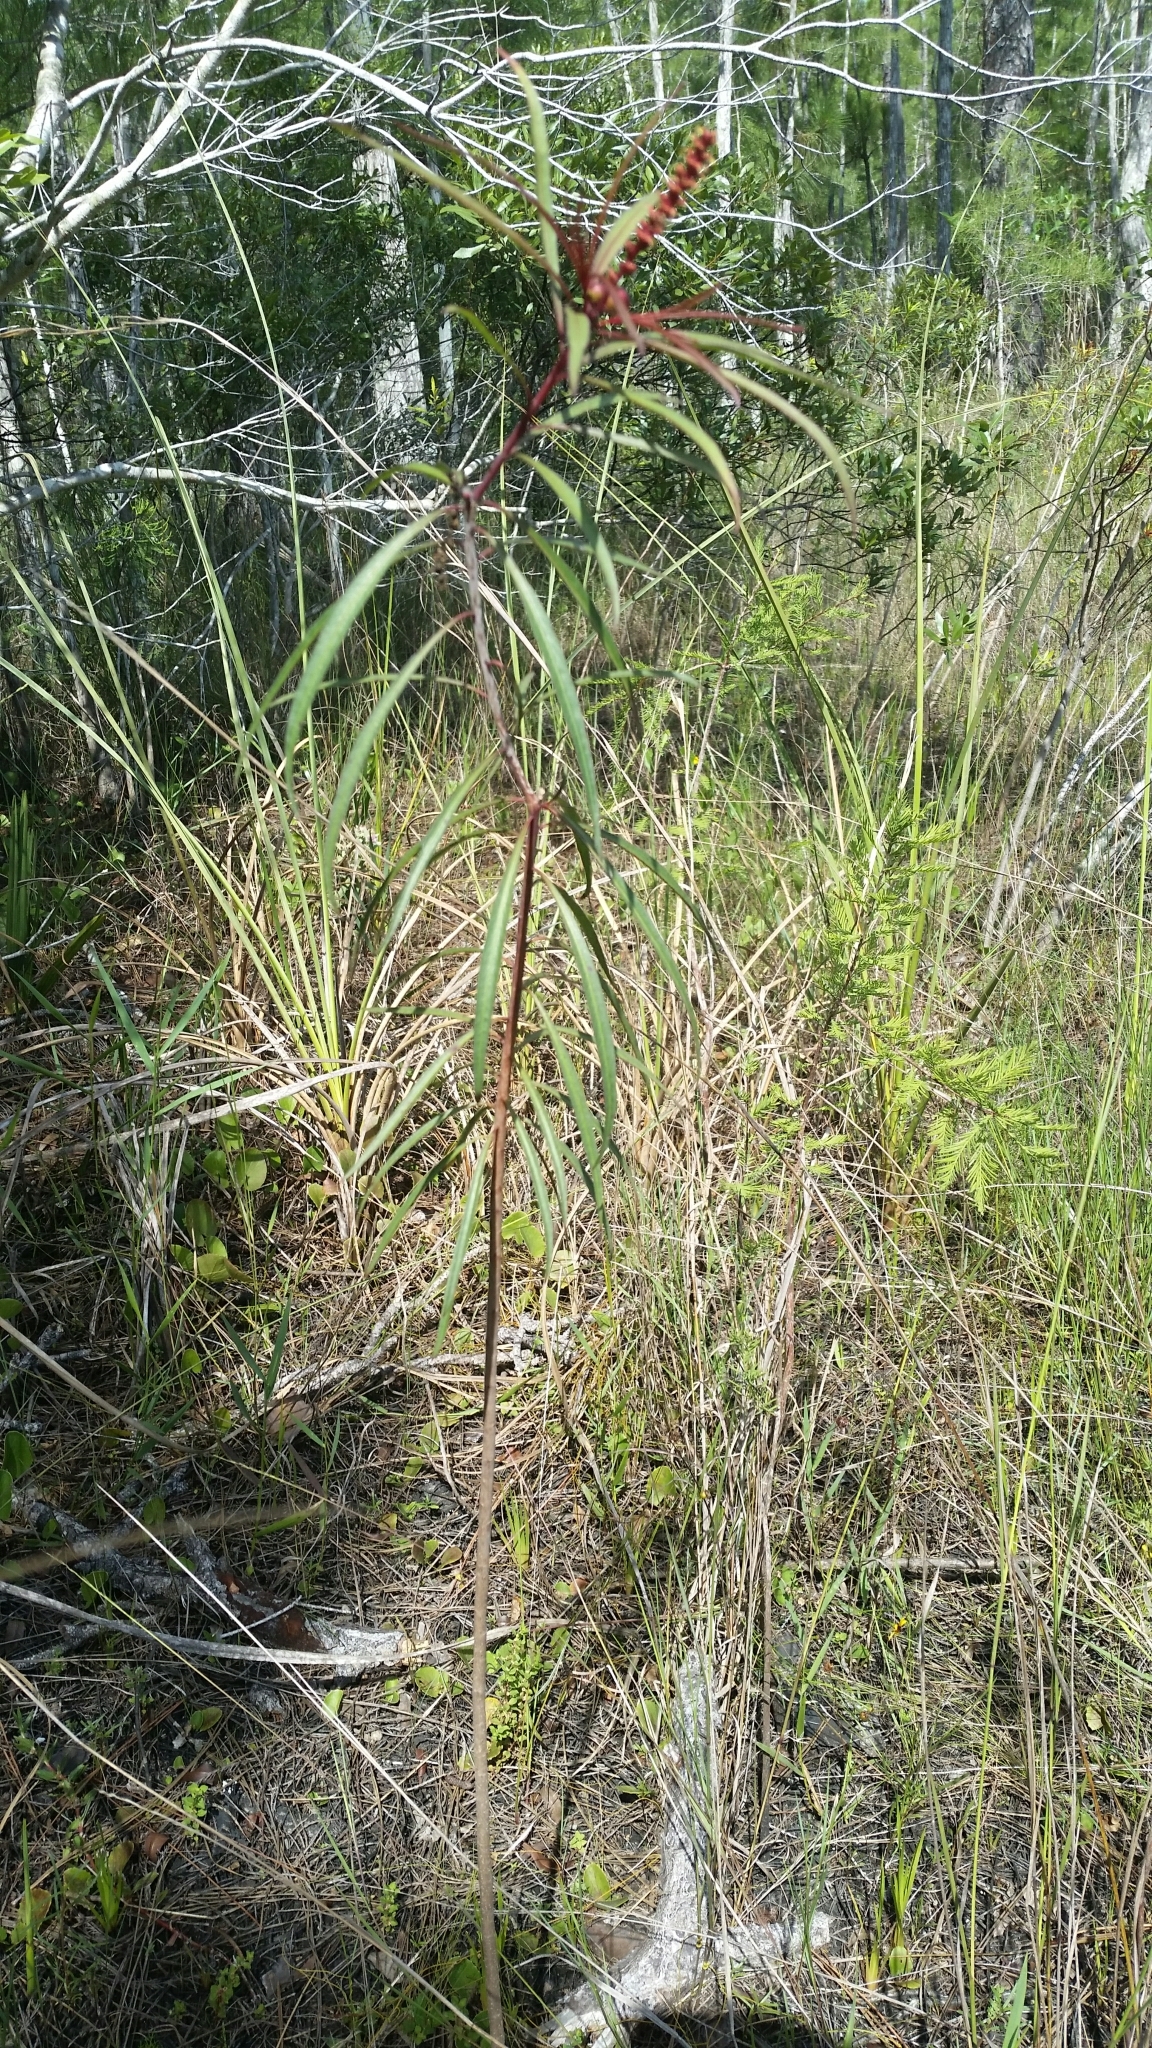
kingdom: Plantae
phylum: Tracheophyta
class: Magnoliopsida
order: Malpighiales
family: Euphorbiaceae
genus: Stillingia
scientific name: Stillingia aquatica
